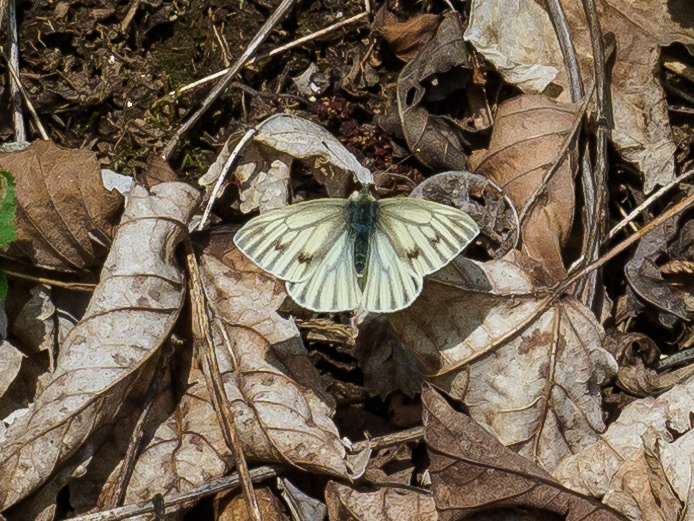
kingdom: Animalia
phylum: Arthropoda
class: Insecta
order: Lepidoptera
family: Pieridae
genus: Pieris
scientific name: Pieris bryoniae
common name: Mountain green-veined white
